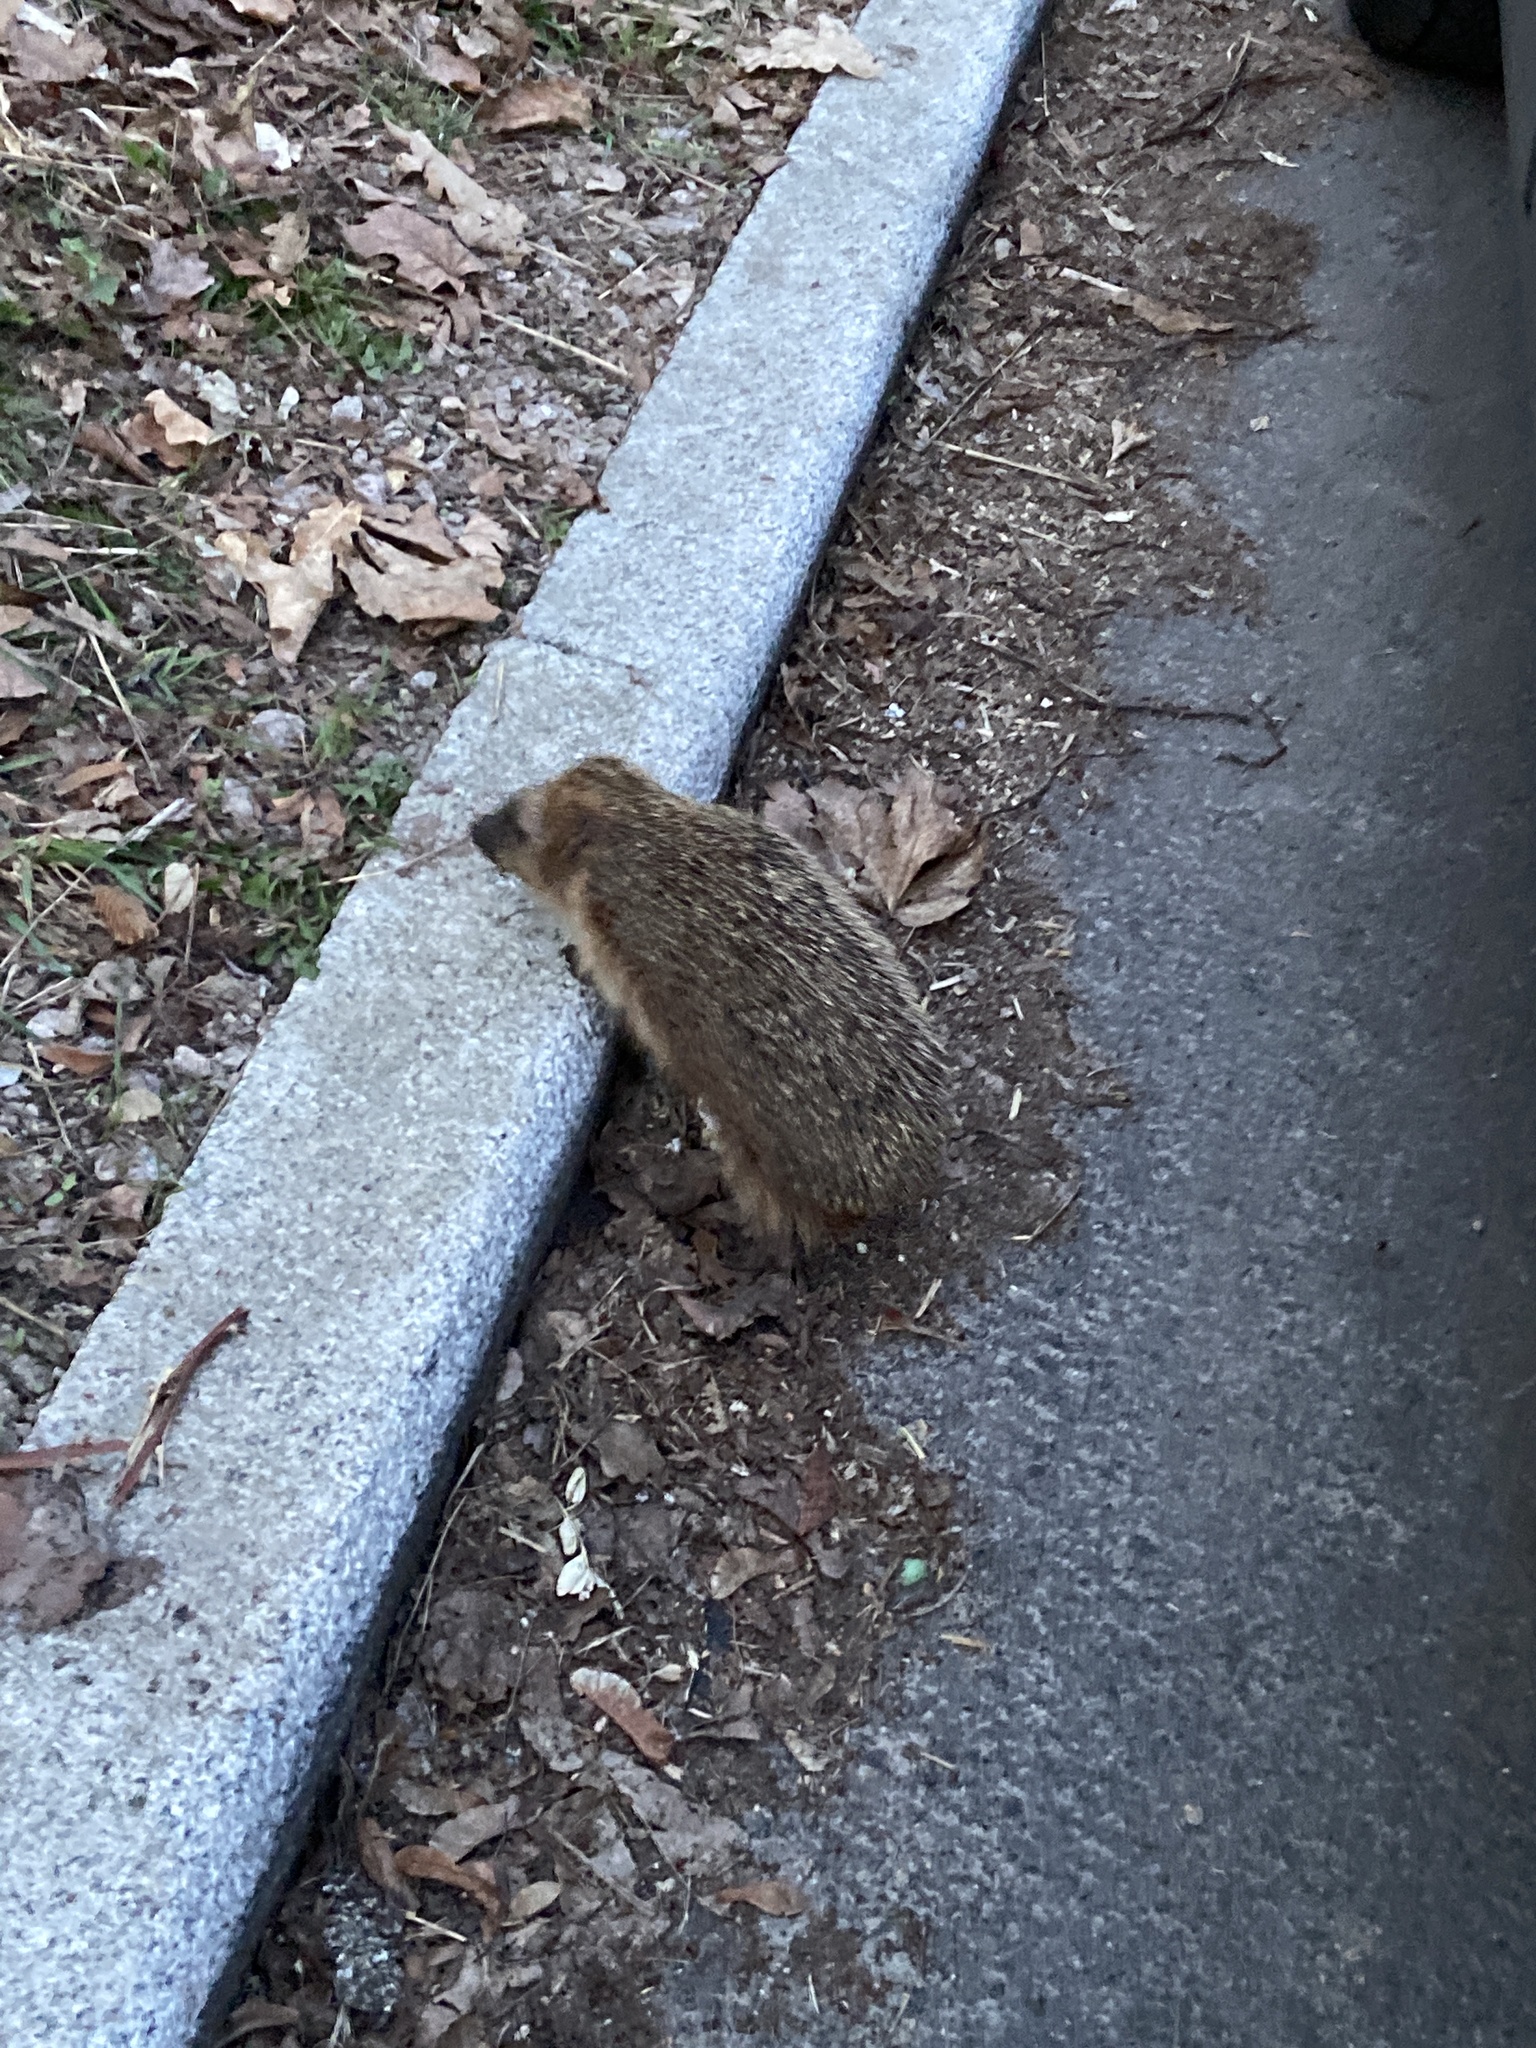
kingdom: Animalia
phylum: Chordata
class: Mammalia
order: Erinaceomorpha
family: Erinaceidae
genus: Erinaceus
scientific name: Erinaceus europaeus
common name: West european hedgehog
